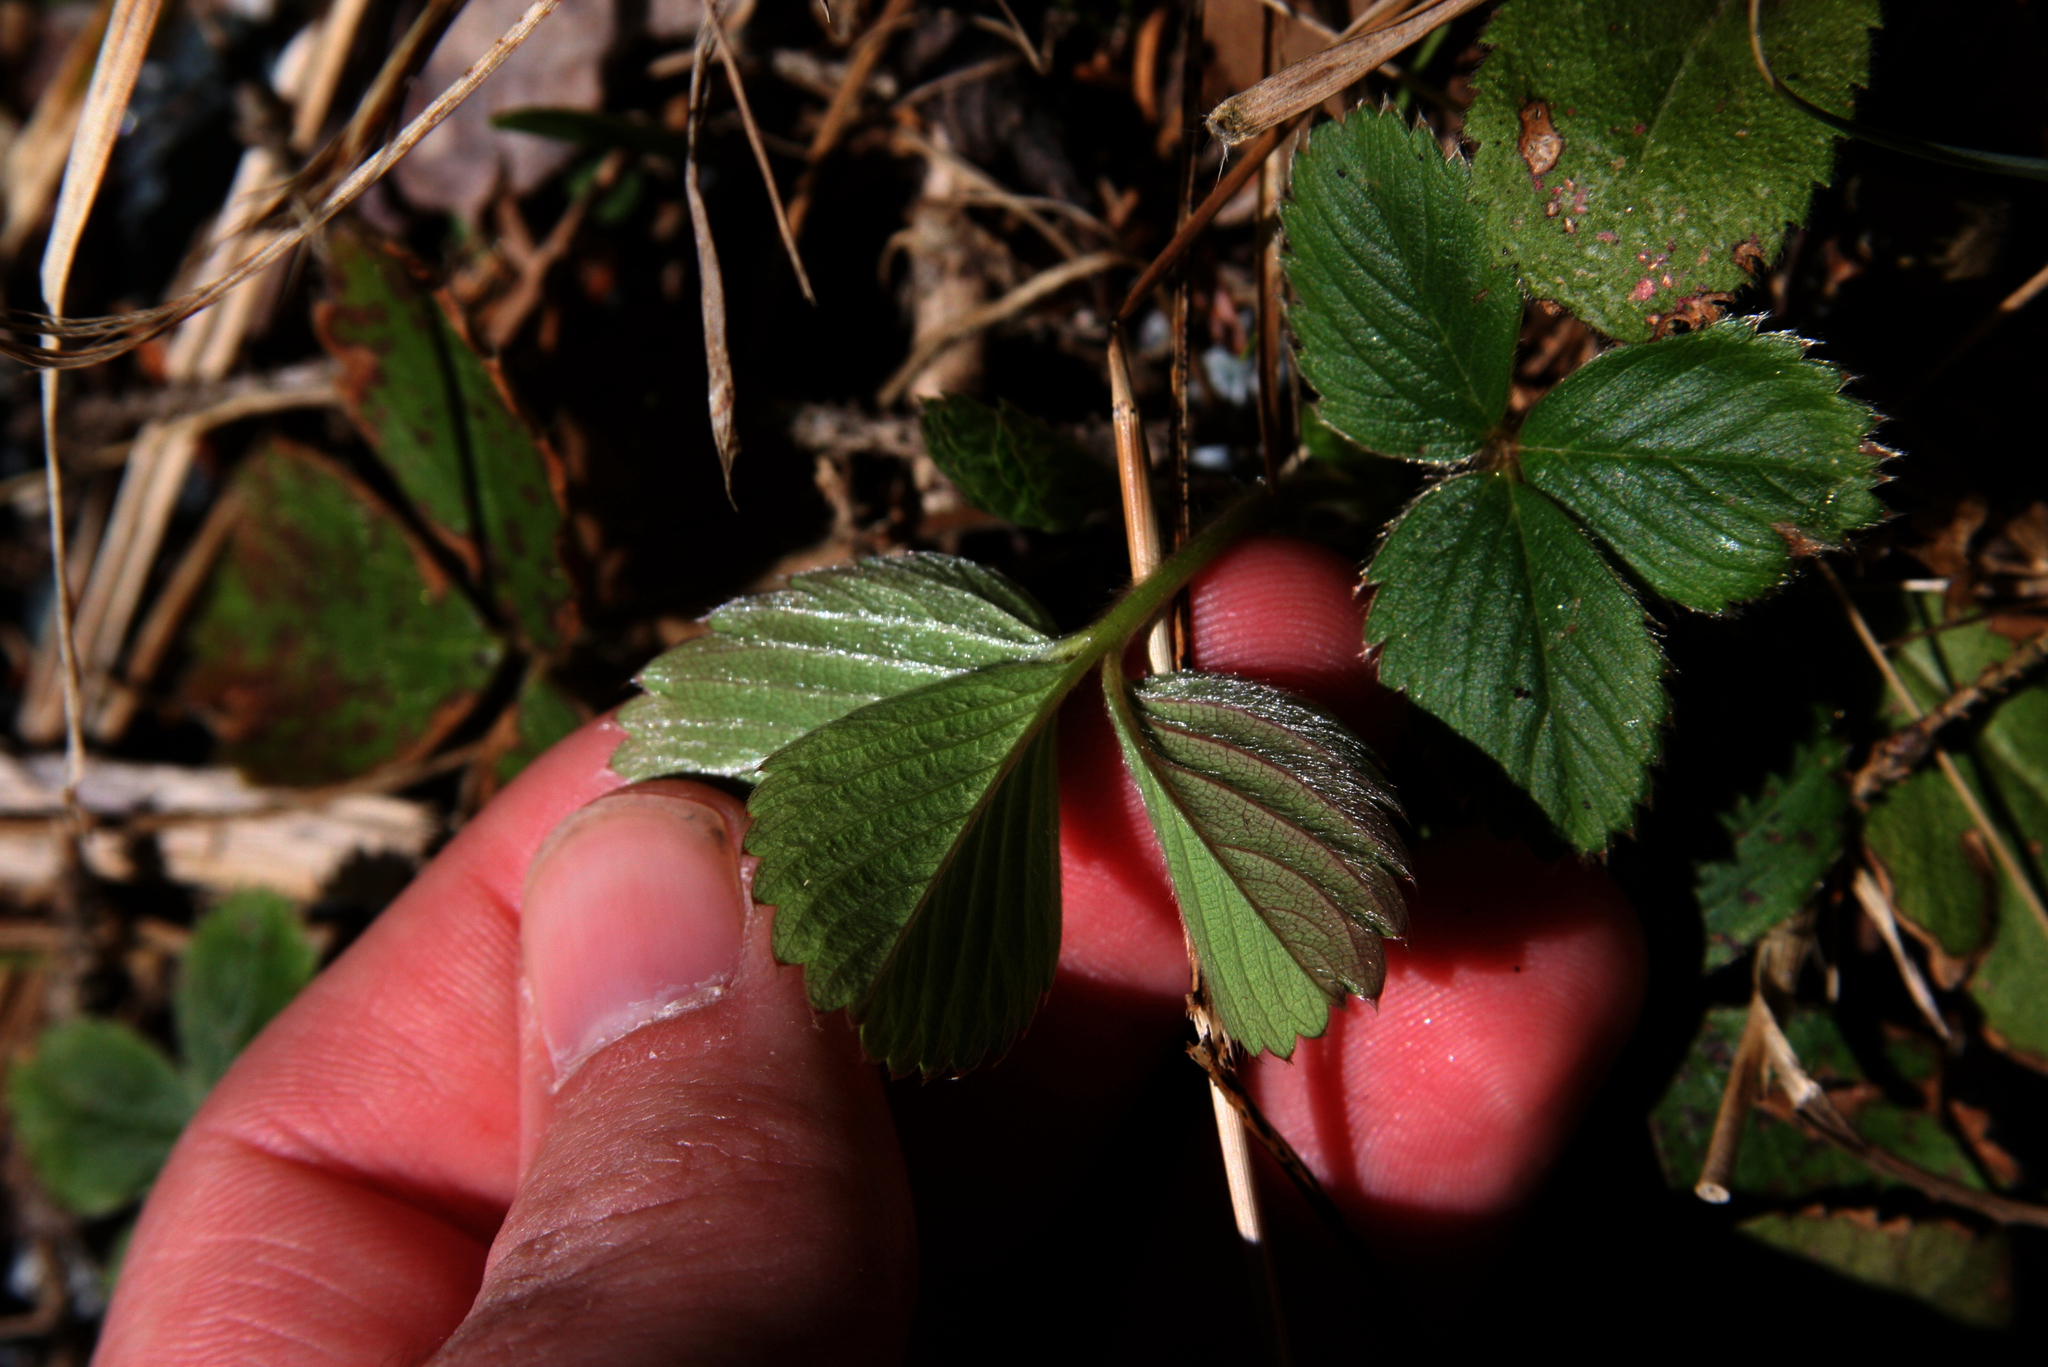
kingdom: Plantae
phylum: Tracheophyta
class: Magnoliopsida
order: Rosales
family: Rosaceae
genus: Fragaria
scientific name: Fragaria vesca
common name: Wild strawberry
